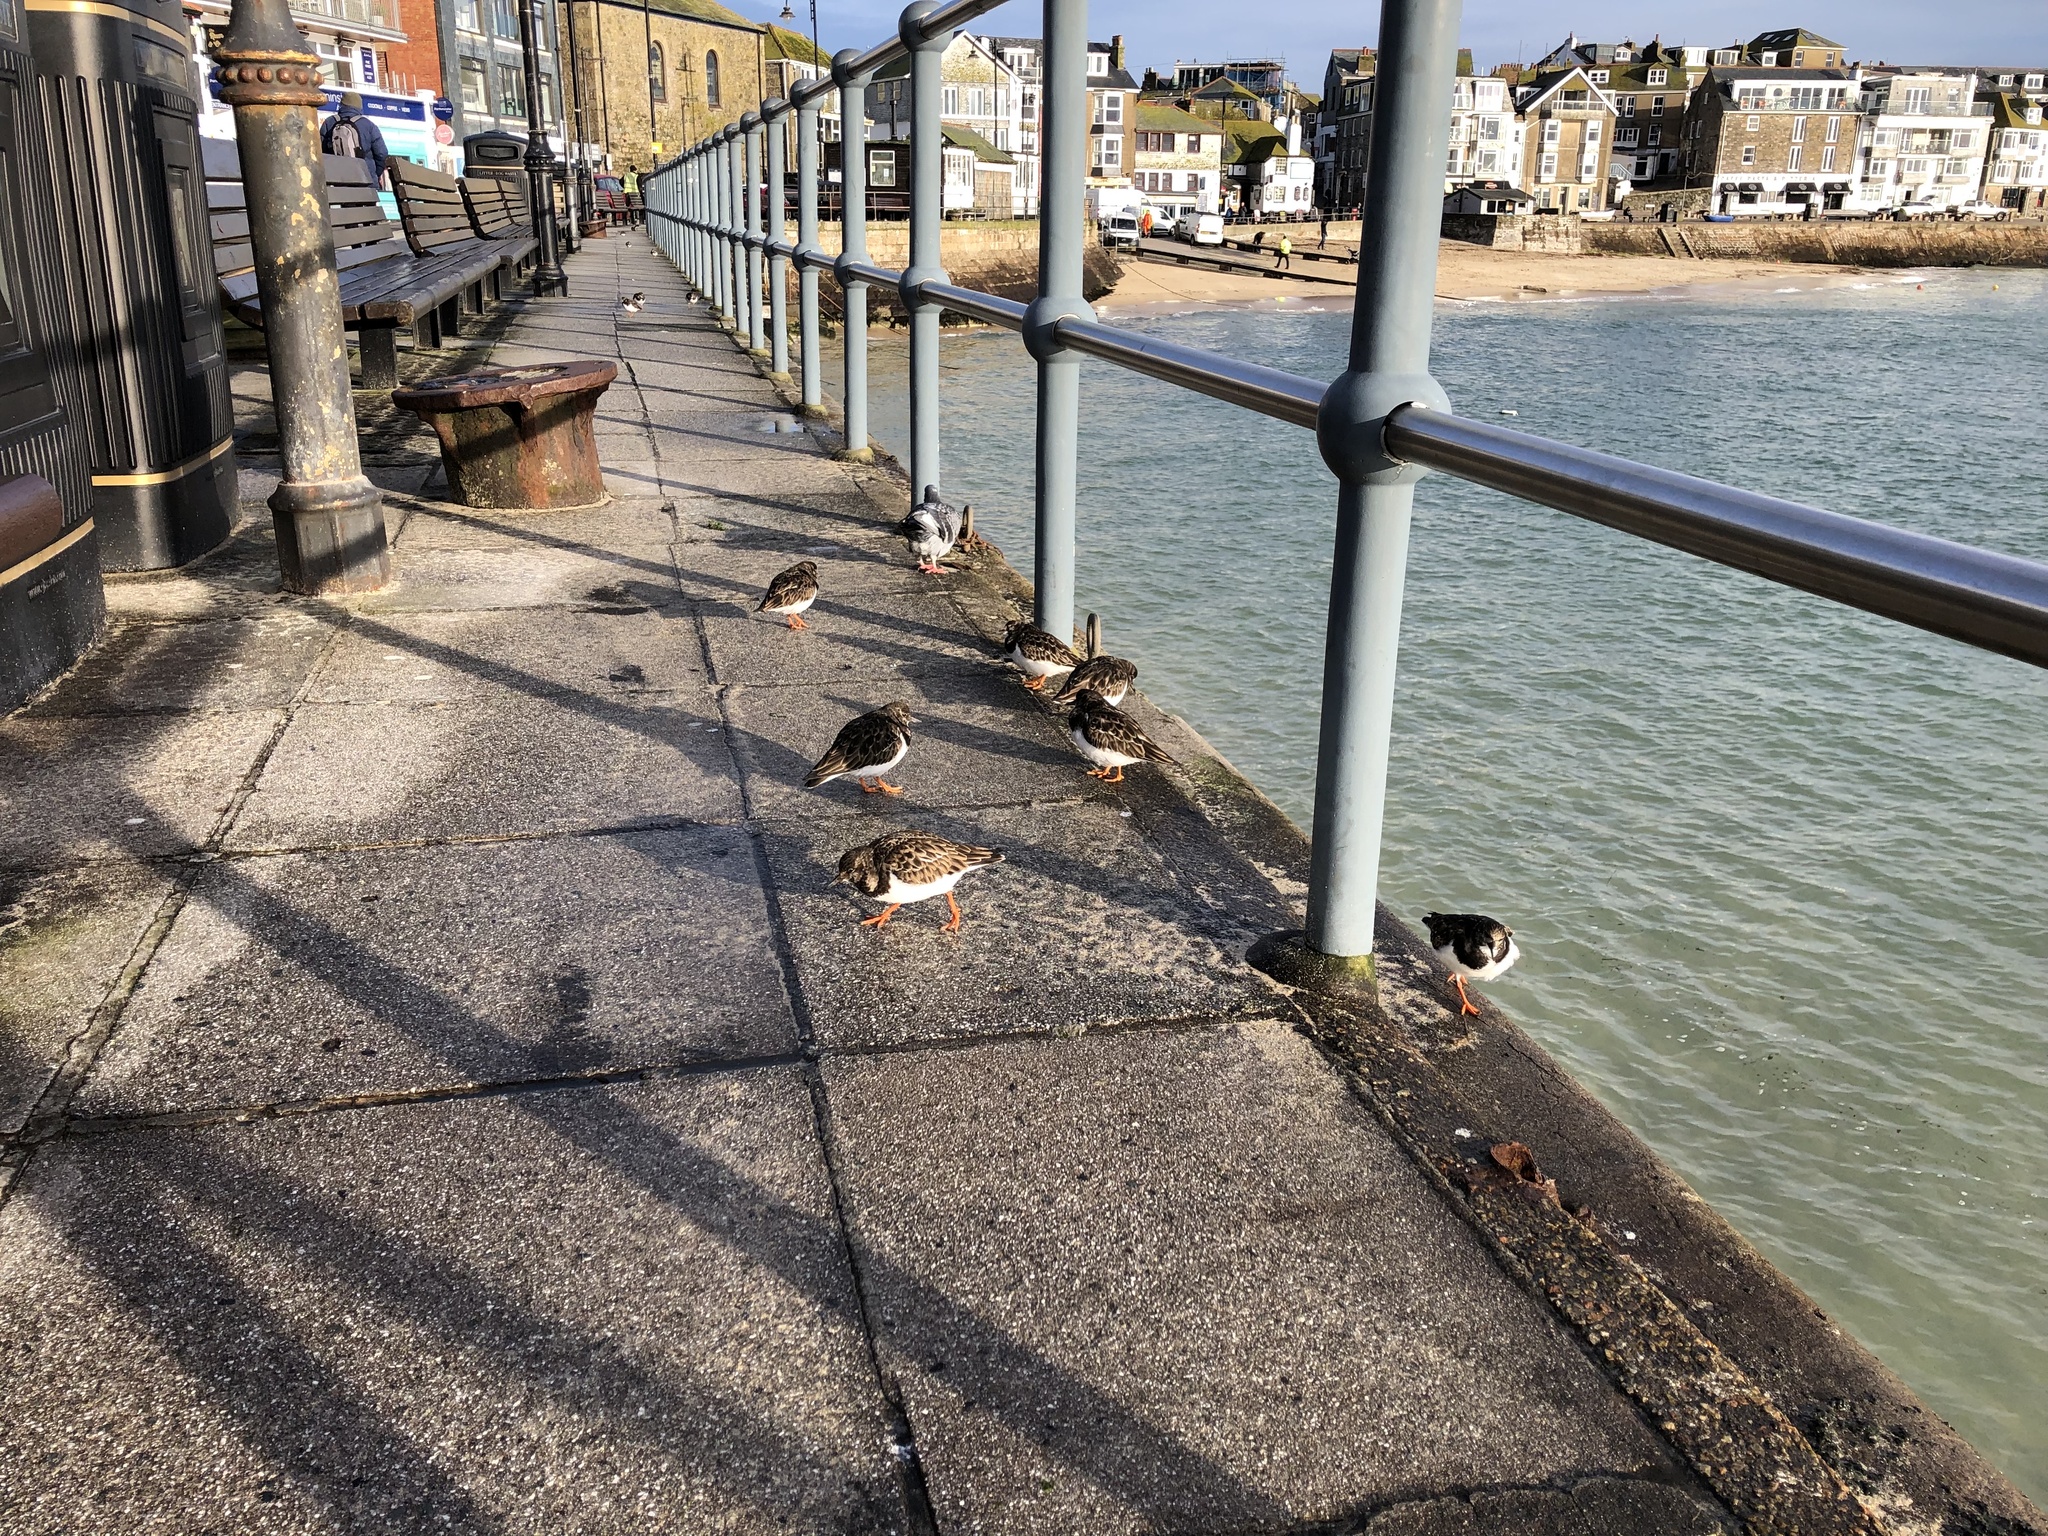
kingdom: Animalia
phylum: Chordata
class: Aves
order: Charadriiformes
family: Scolopacidae
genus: Arenaria
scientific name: Arenaria interpres
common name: Ruddy turnstone
